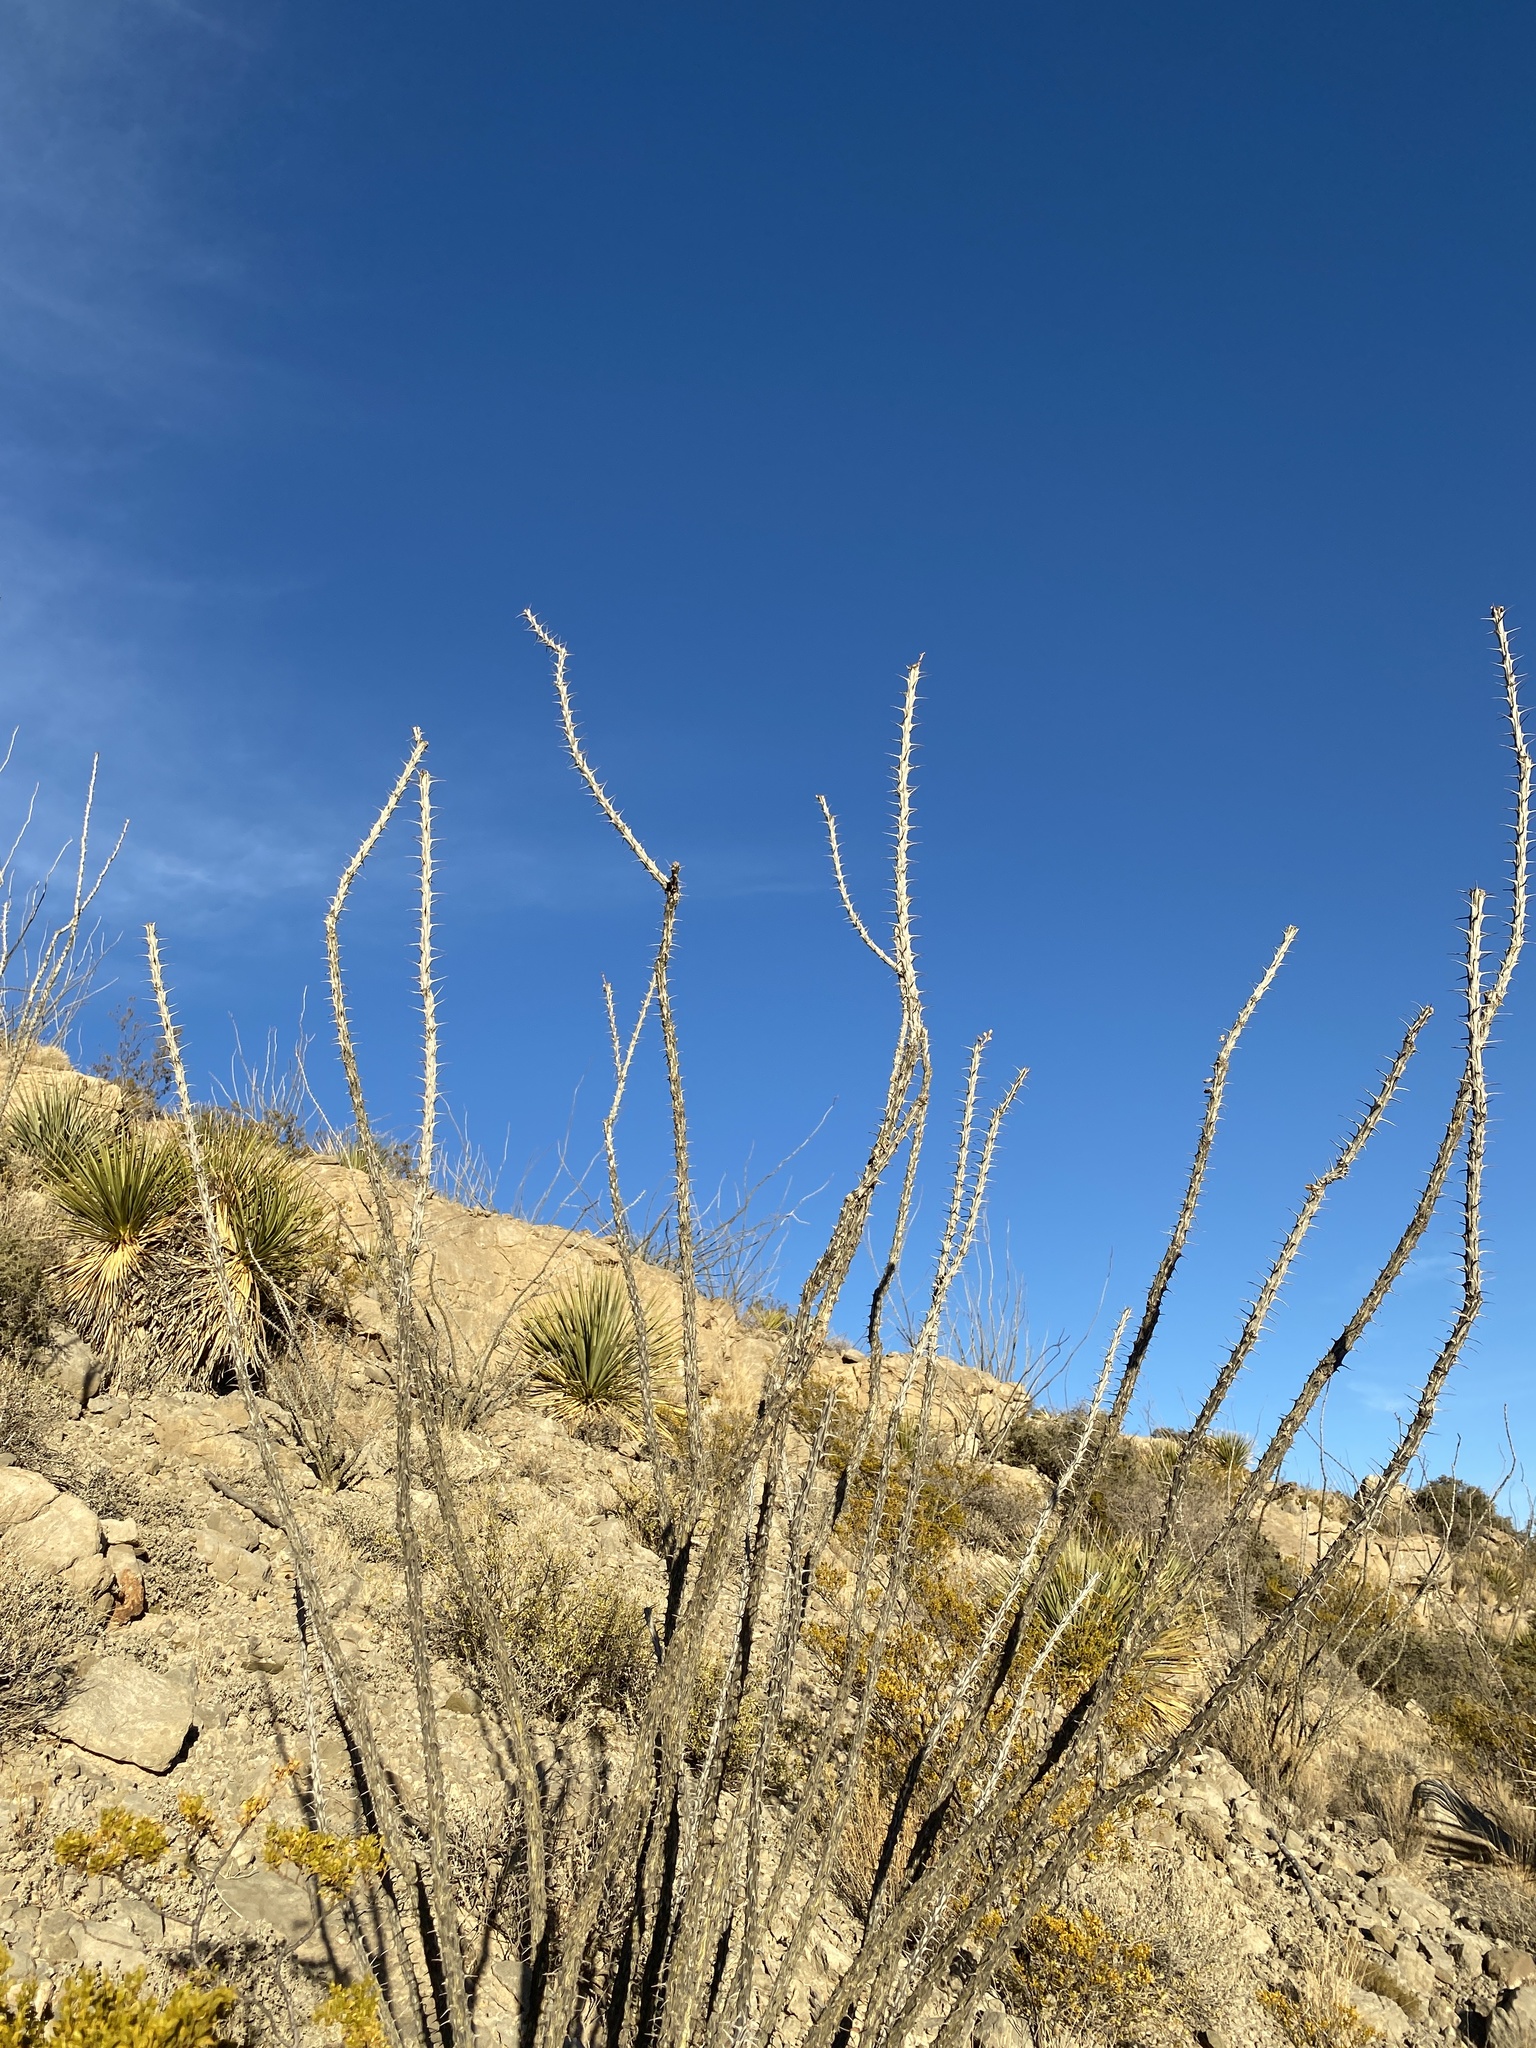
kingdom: Plantae
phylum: Tracheophyta
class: Magnoliopsida
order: Ericales
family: Fouquieriaceae
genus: Fouquieria
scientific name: Fouquieria splendens
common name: Vine-cactus
